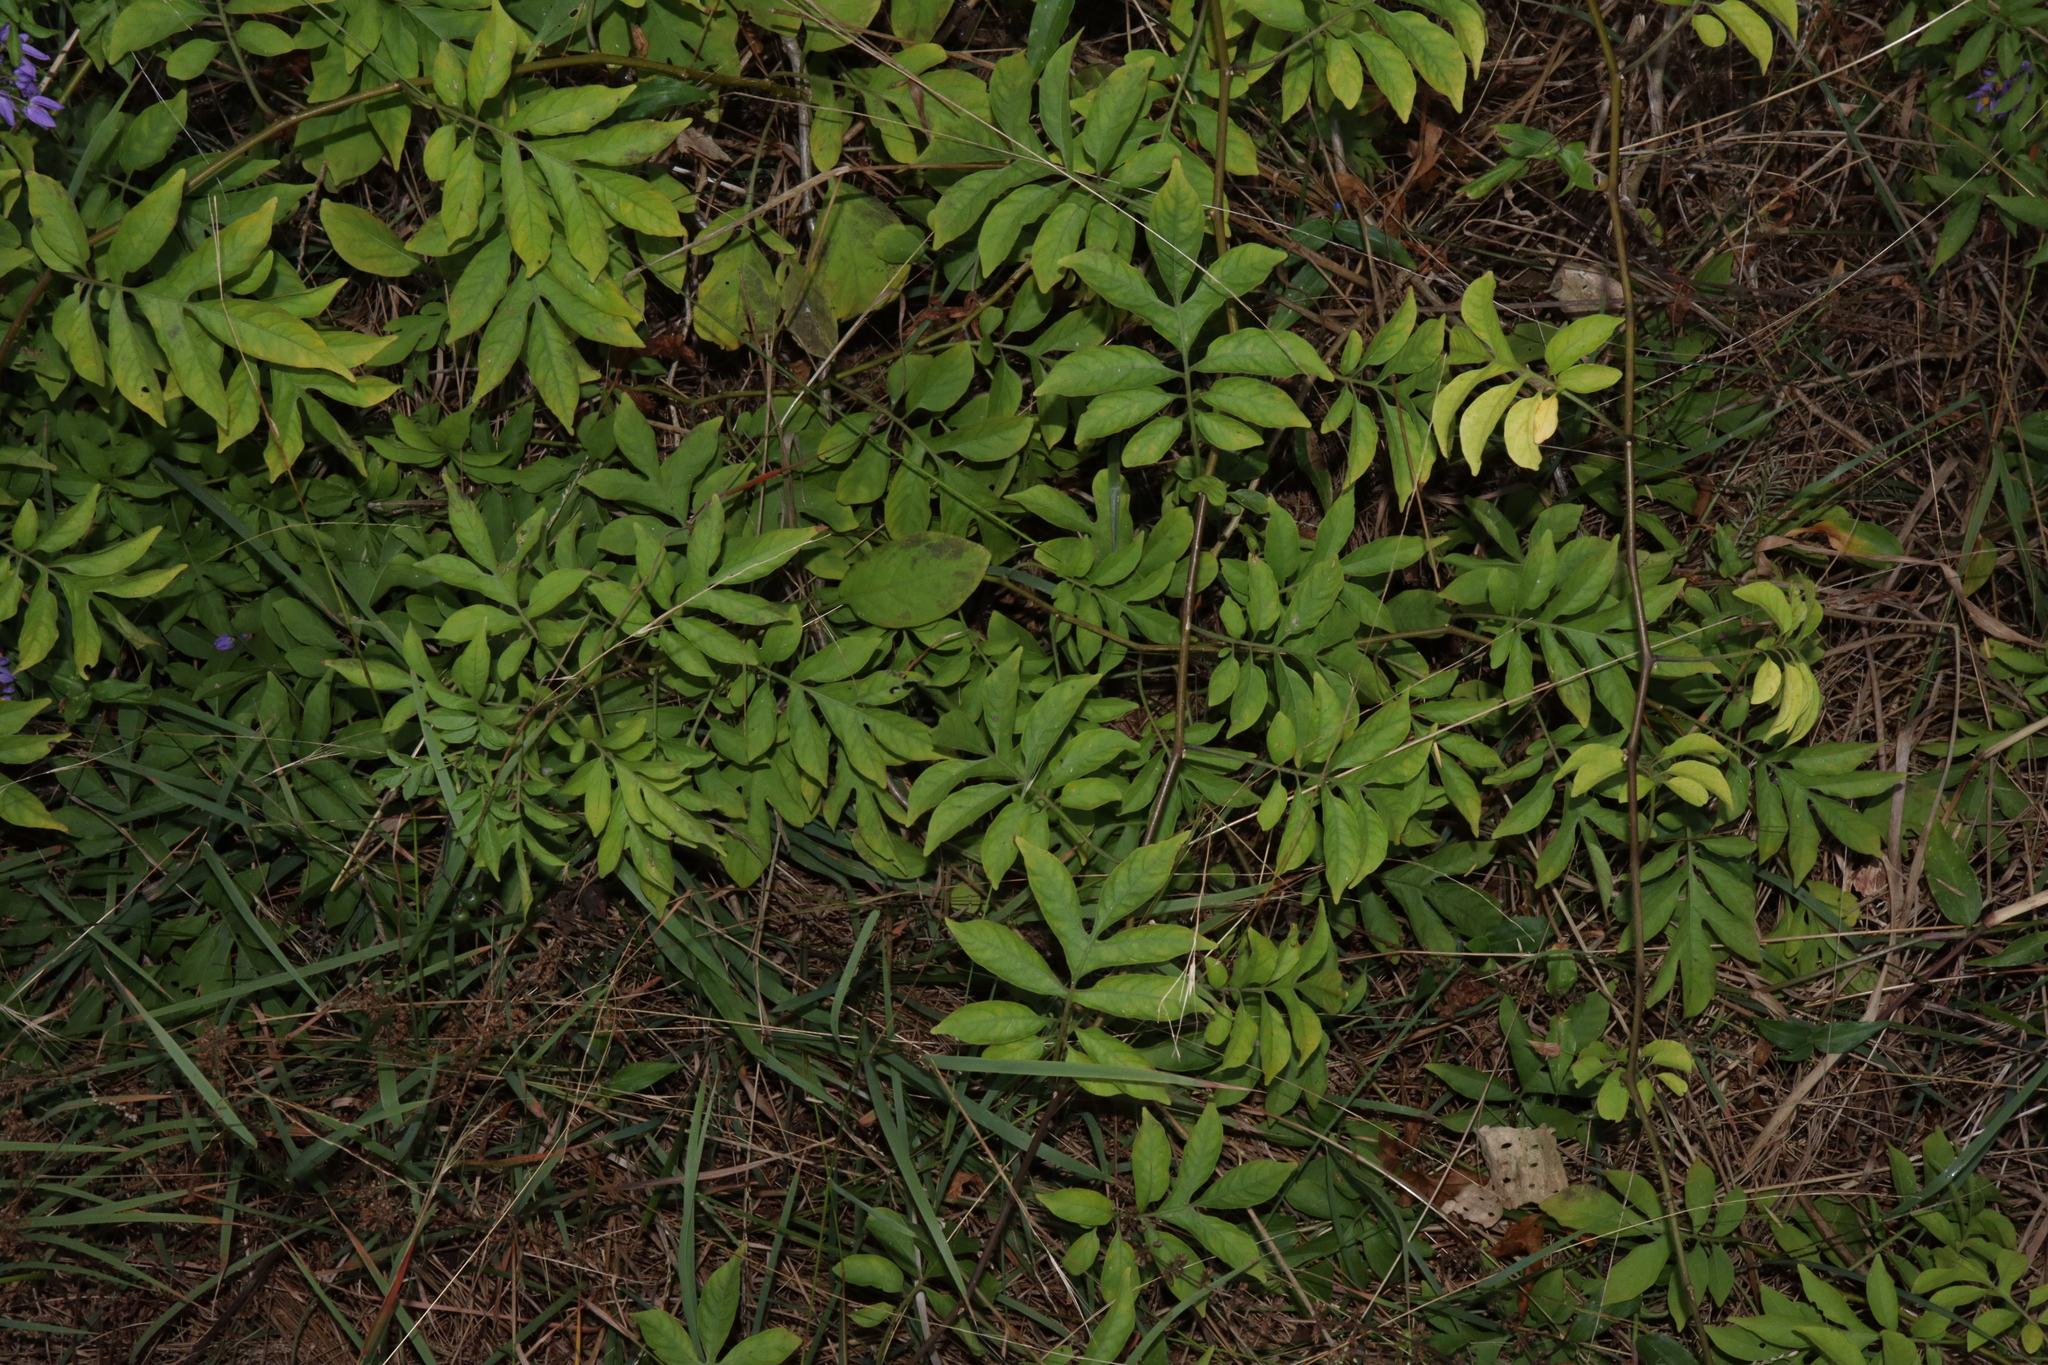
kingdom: Plantae
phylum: Tracheophyta
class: Magnoliopsida
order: Solanales
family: Solanaceae
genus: Solanum
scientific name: Solanum seaforthianum
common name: Brazilian nightshade
